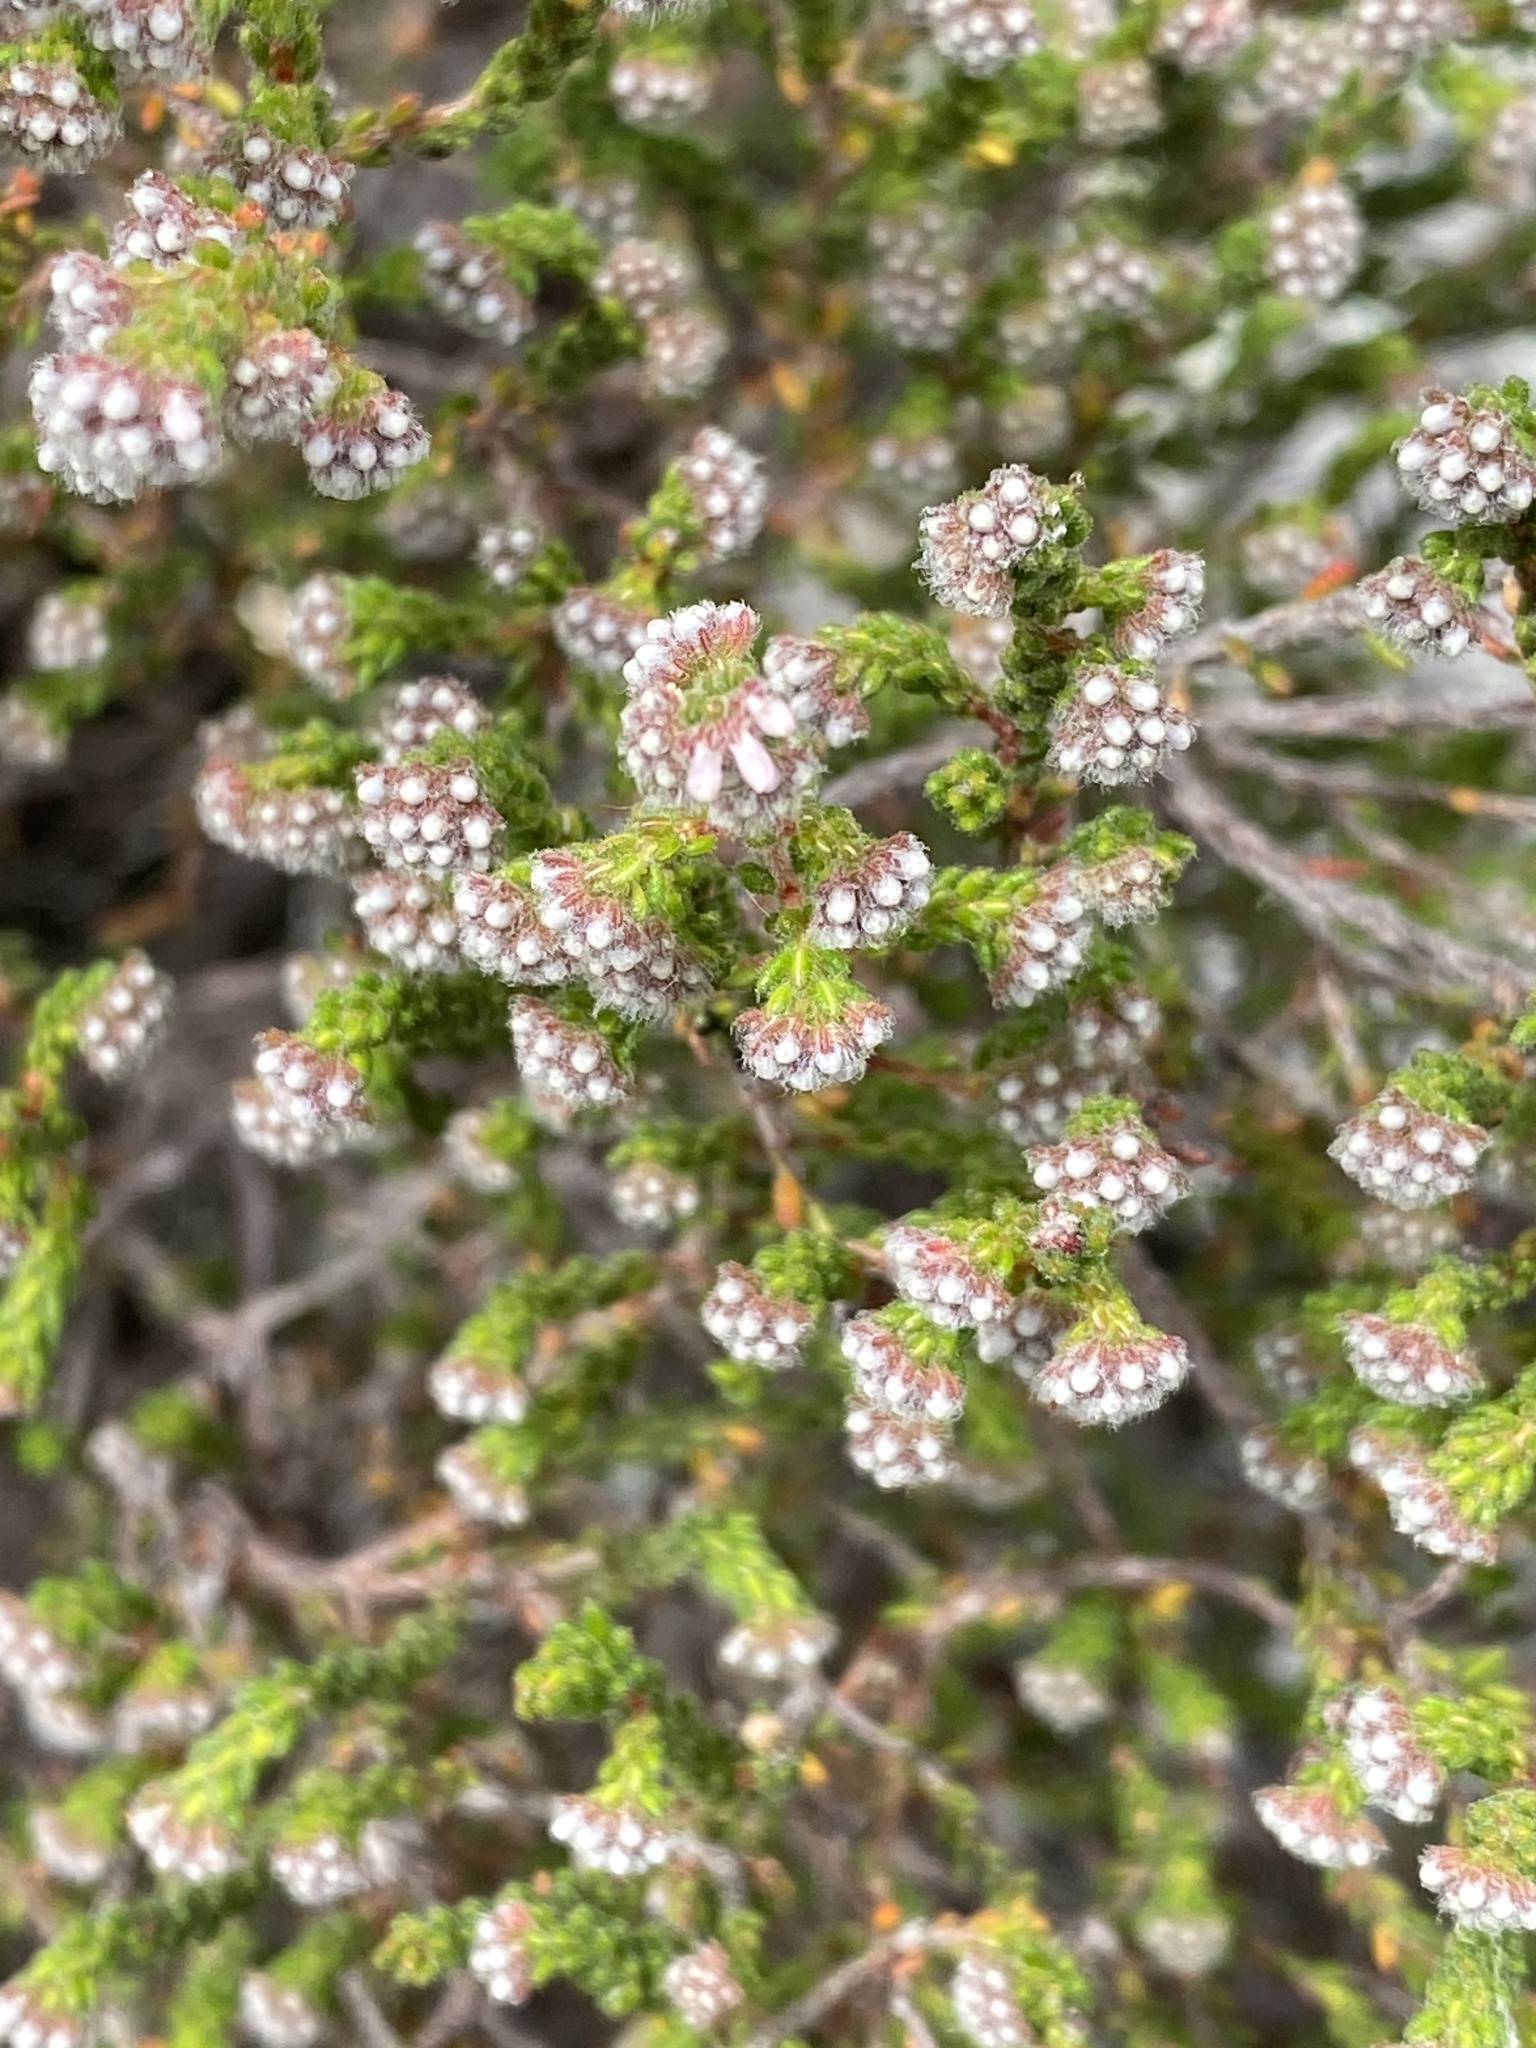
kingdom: Plantae
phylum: Tracheophyta
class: Magnoliopsida
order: Ericales
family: Ericaceae
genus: Erica
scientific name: Erica ericoides
